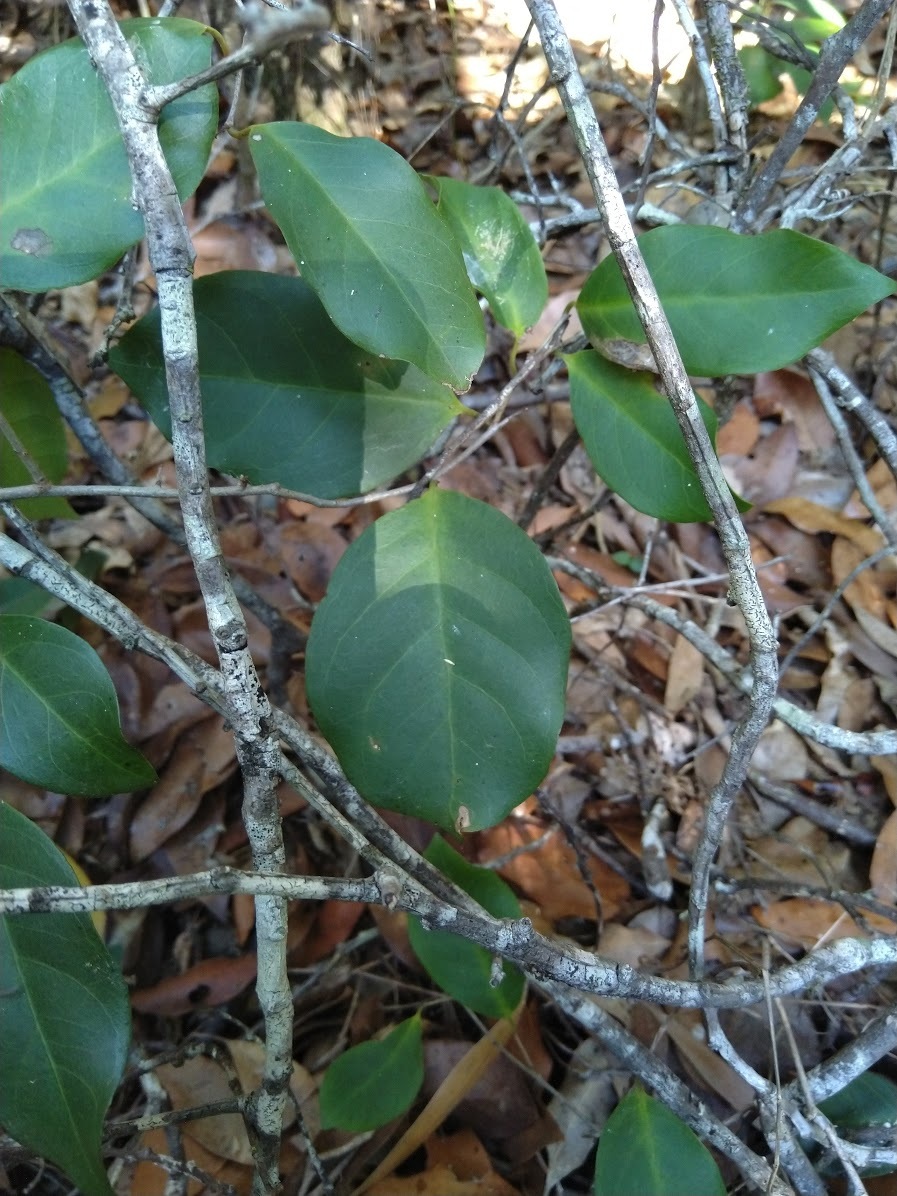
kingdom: Plantae
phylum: Tracheophyta
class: Magnoliopsida
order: Ericales
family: Primulaceae
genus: Embelia
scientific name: Embelia australiana
